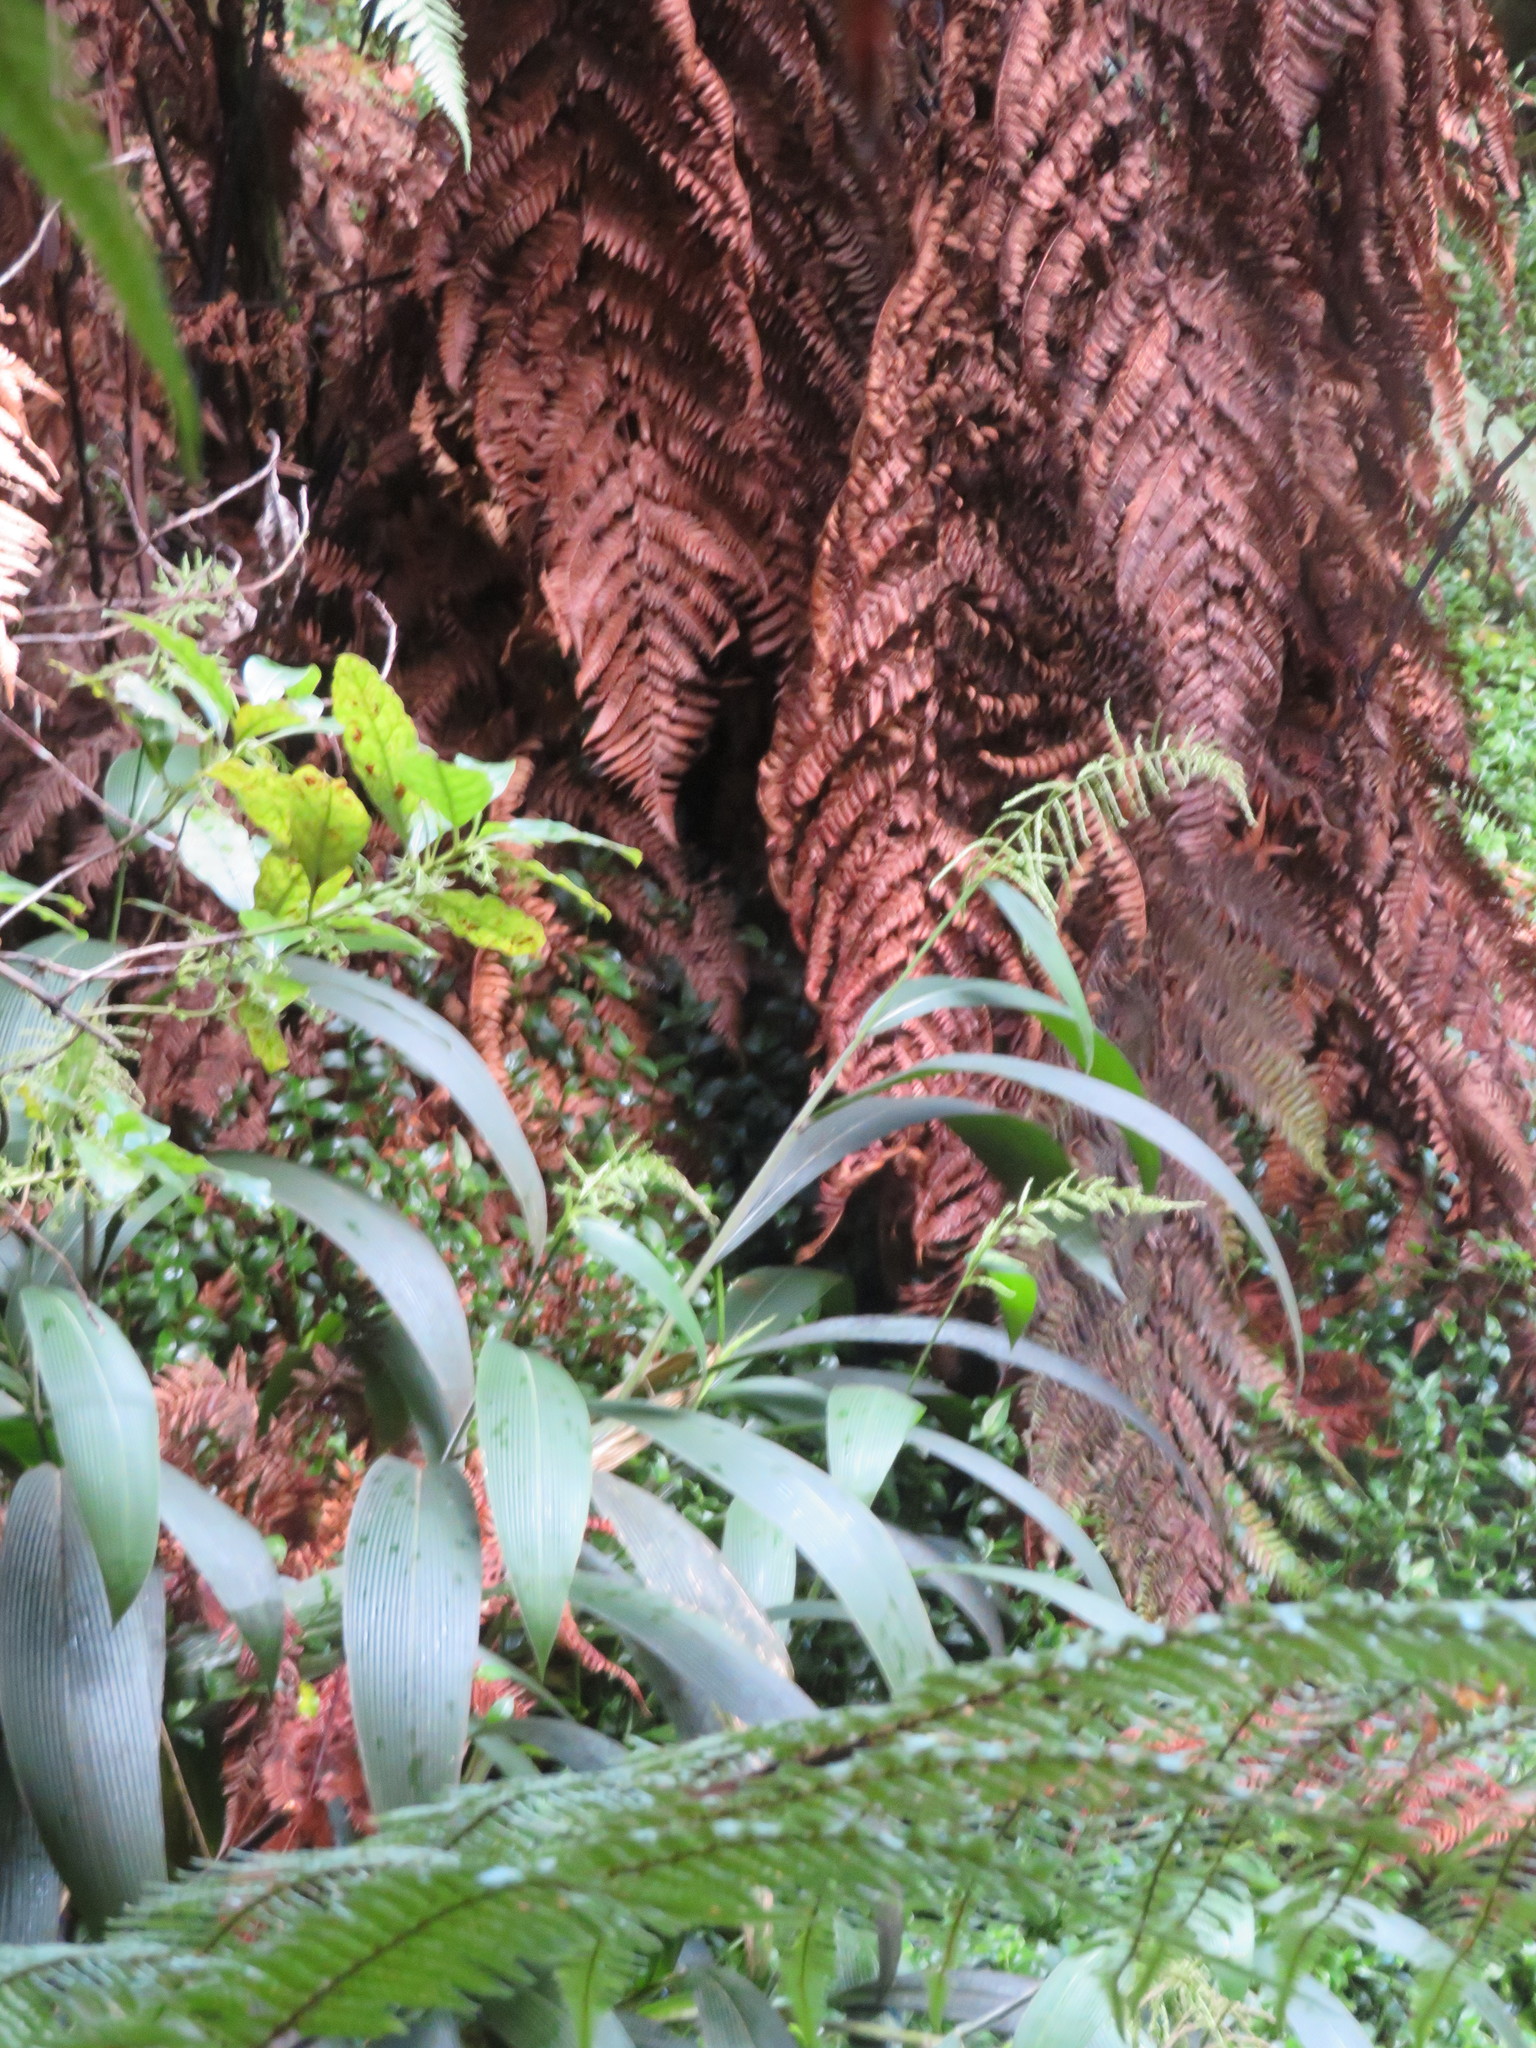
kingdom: Plantae
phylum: Tracheophyta
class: Liliopsida
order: Poales
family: Poaceae
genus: Setaria
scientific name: Setaria palmifolia
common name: Broadleaved bristlegrass
